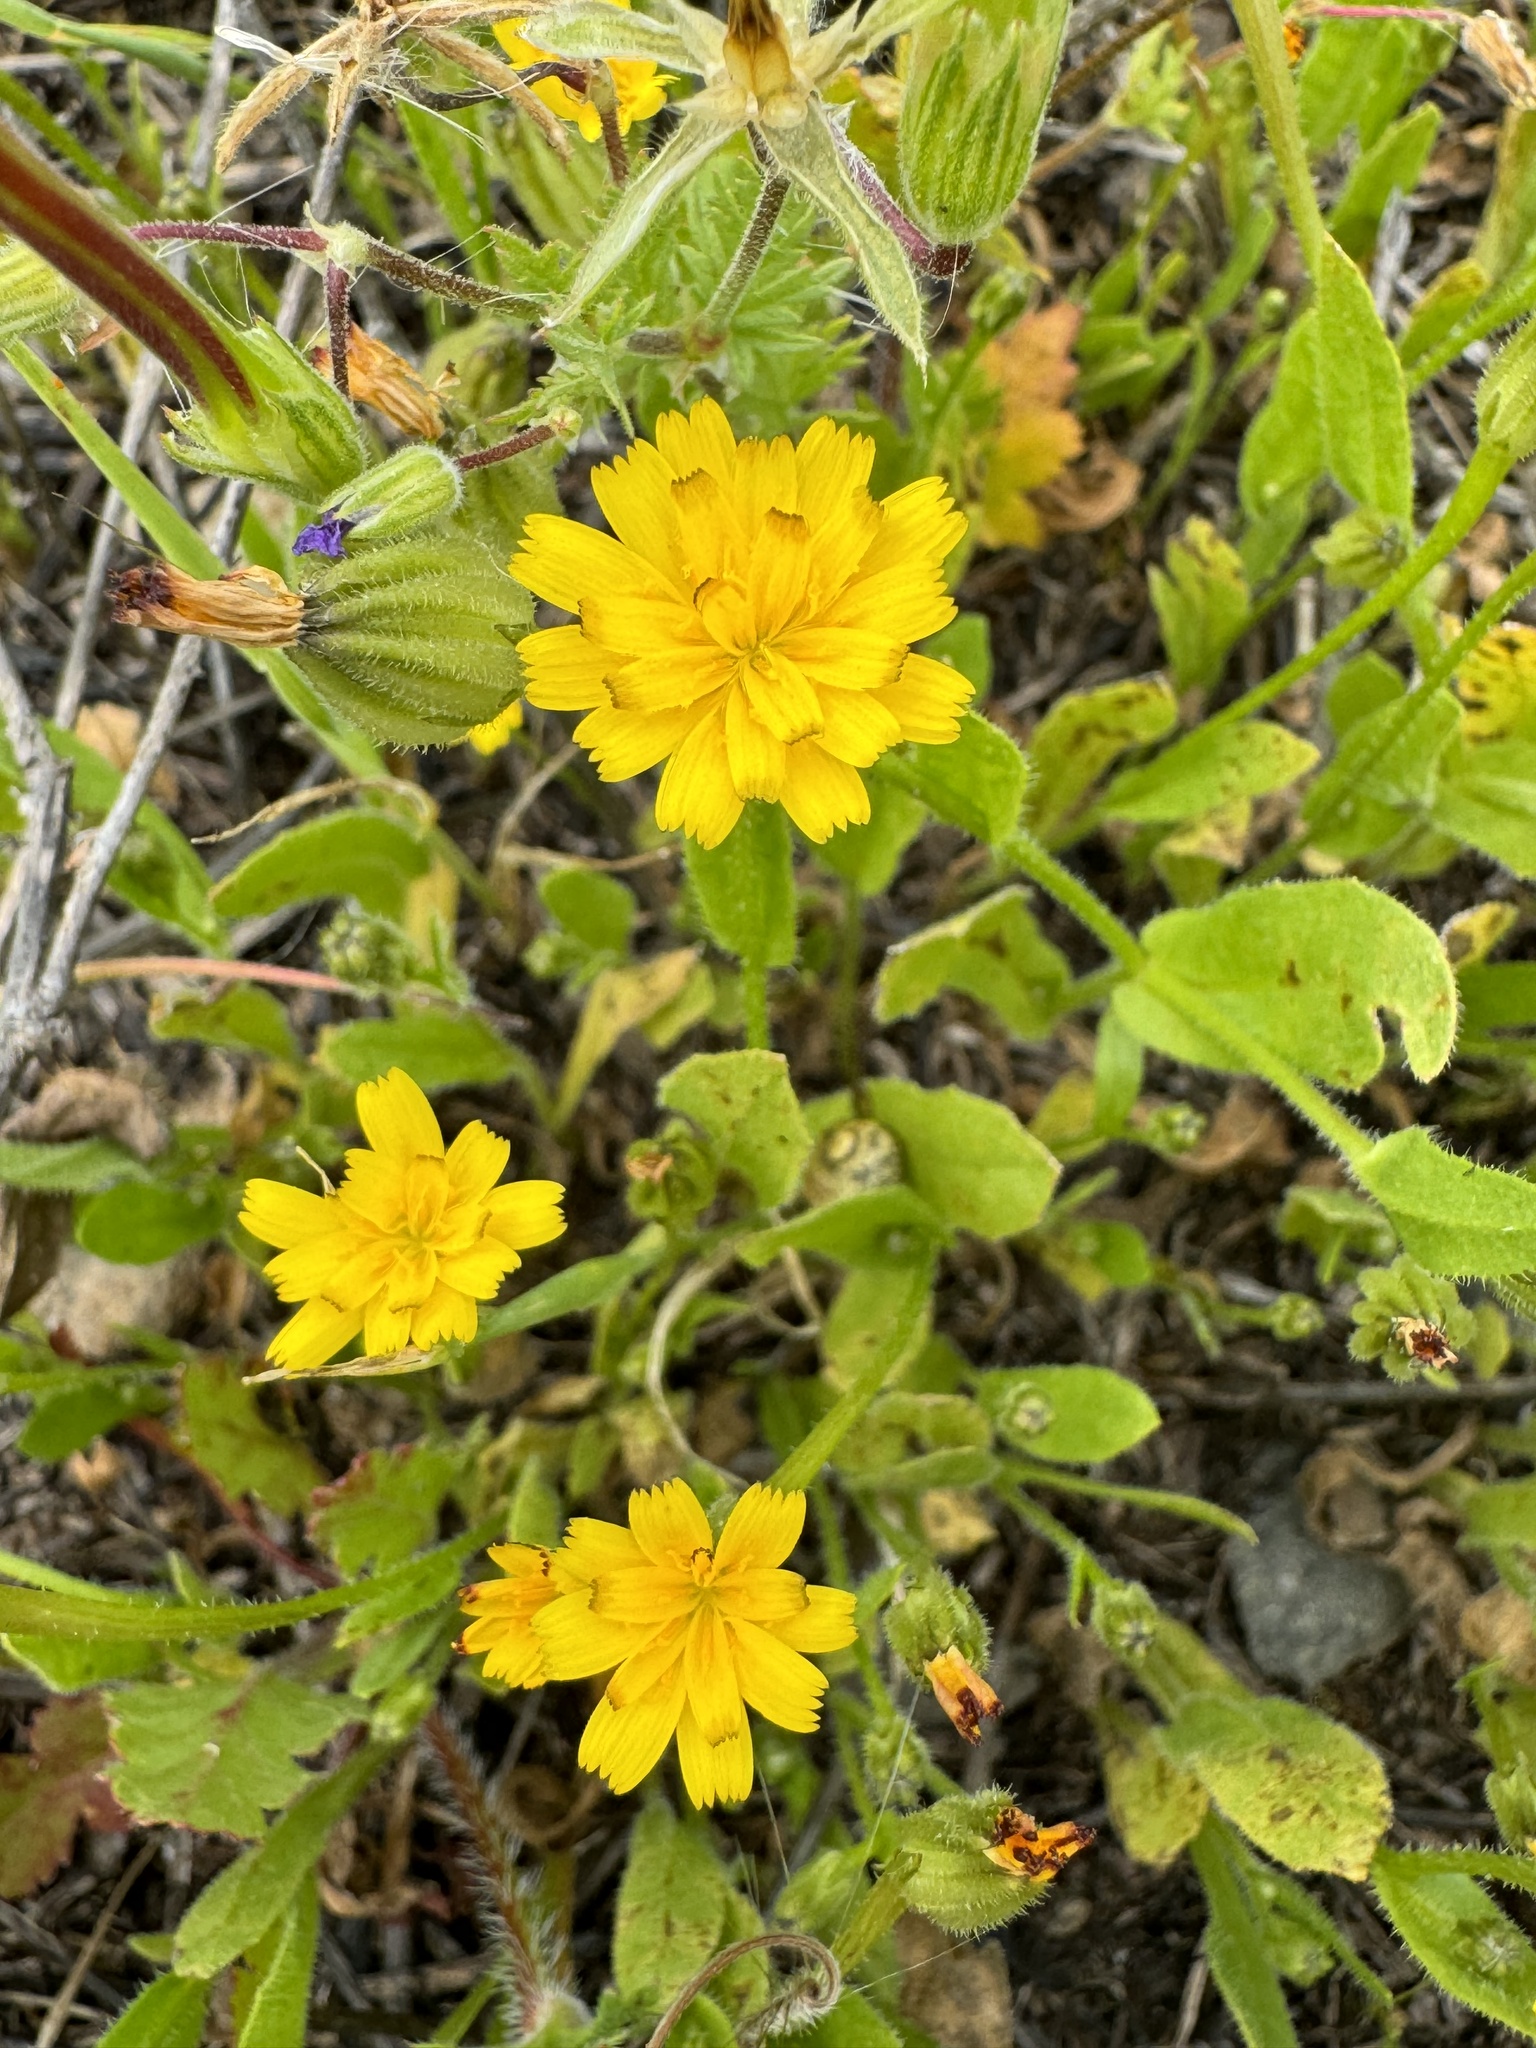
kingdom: Plantae
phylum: Tracheophyta
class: Magnoliopsida
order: Asterales
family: Asteraceae
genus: Hedypnois
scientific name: Hedypnois rhagadioloides
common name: Cretan weed
